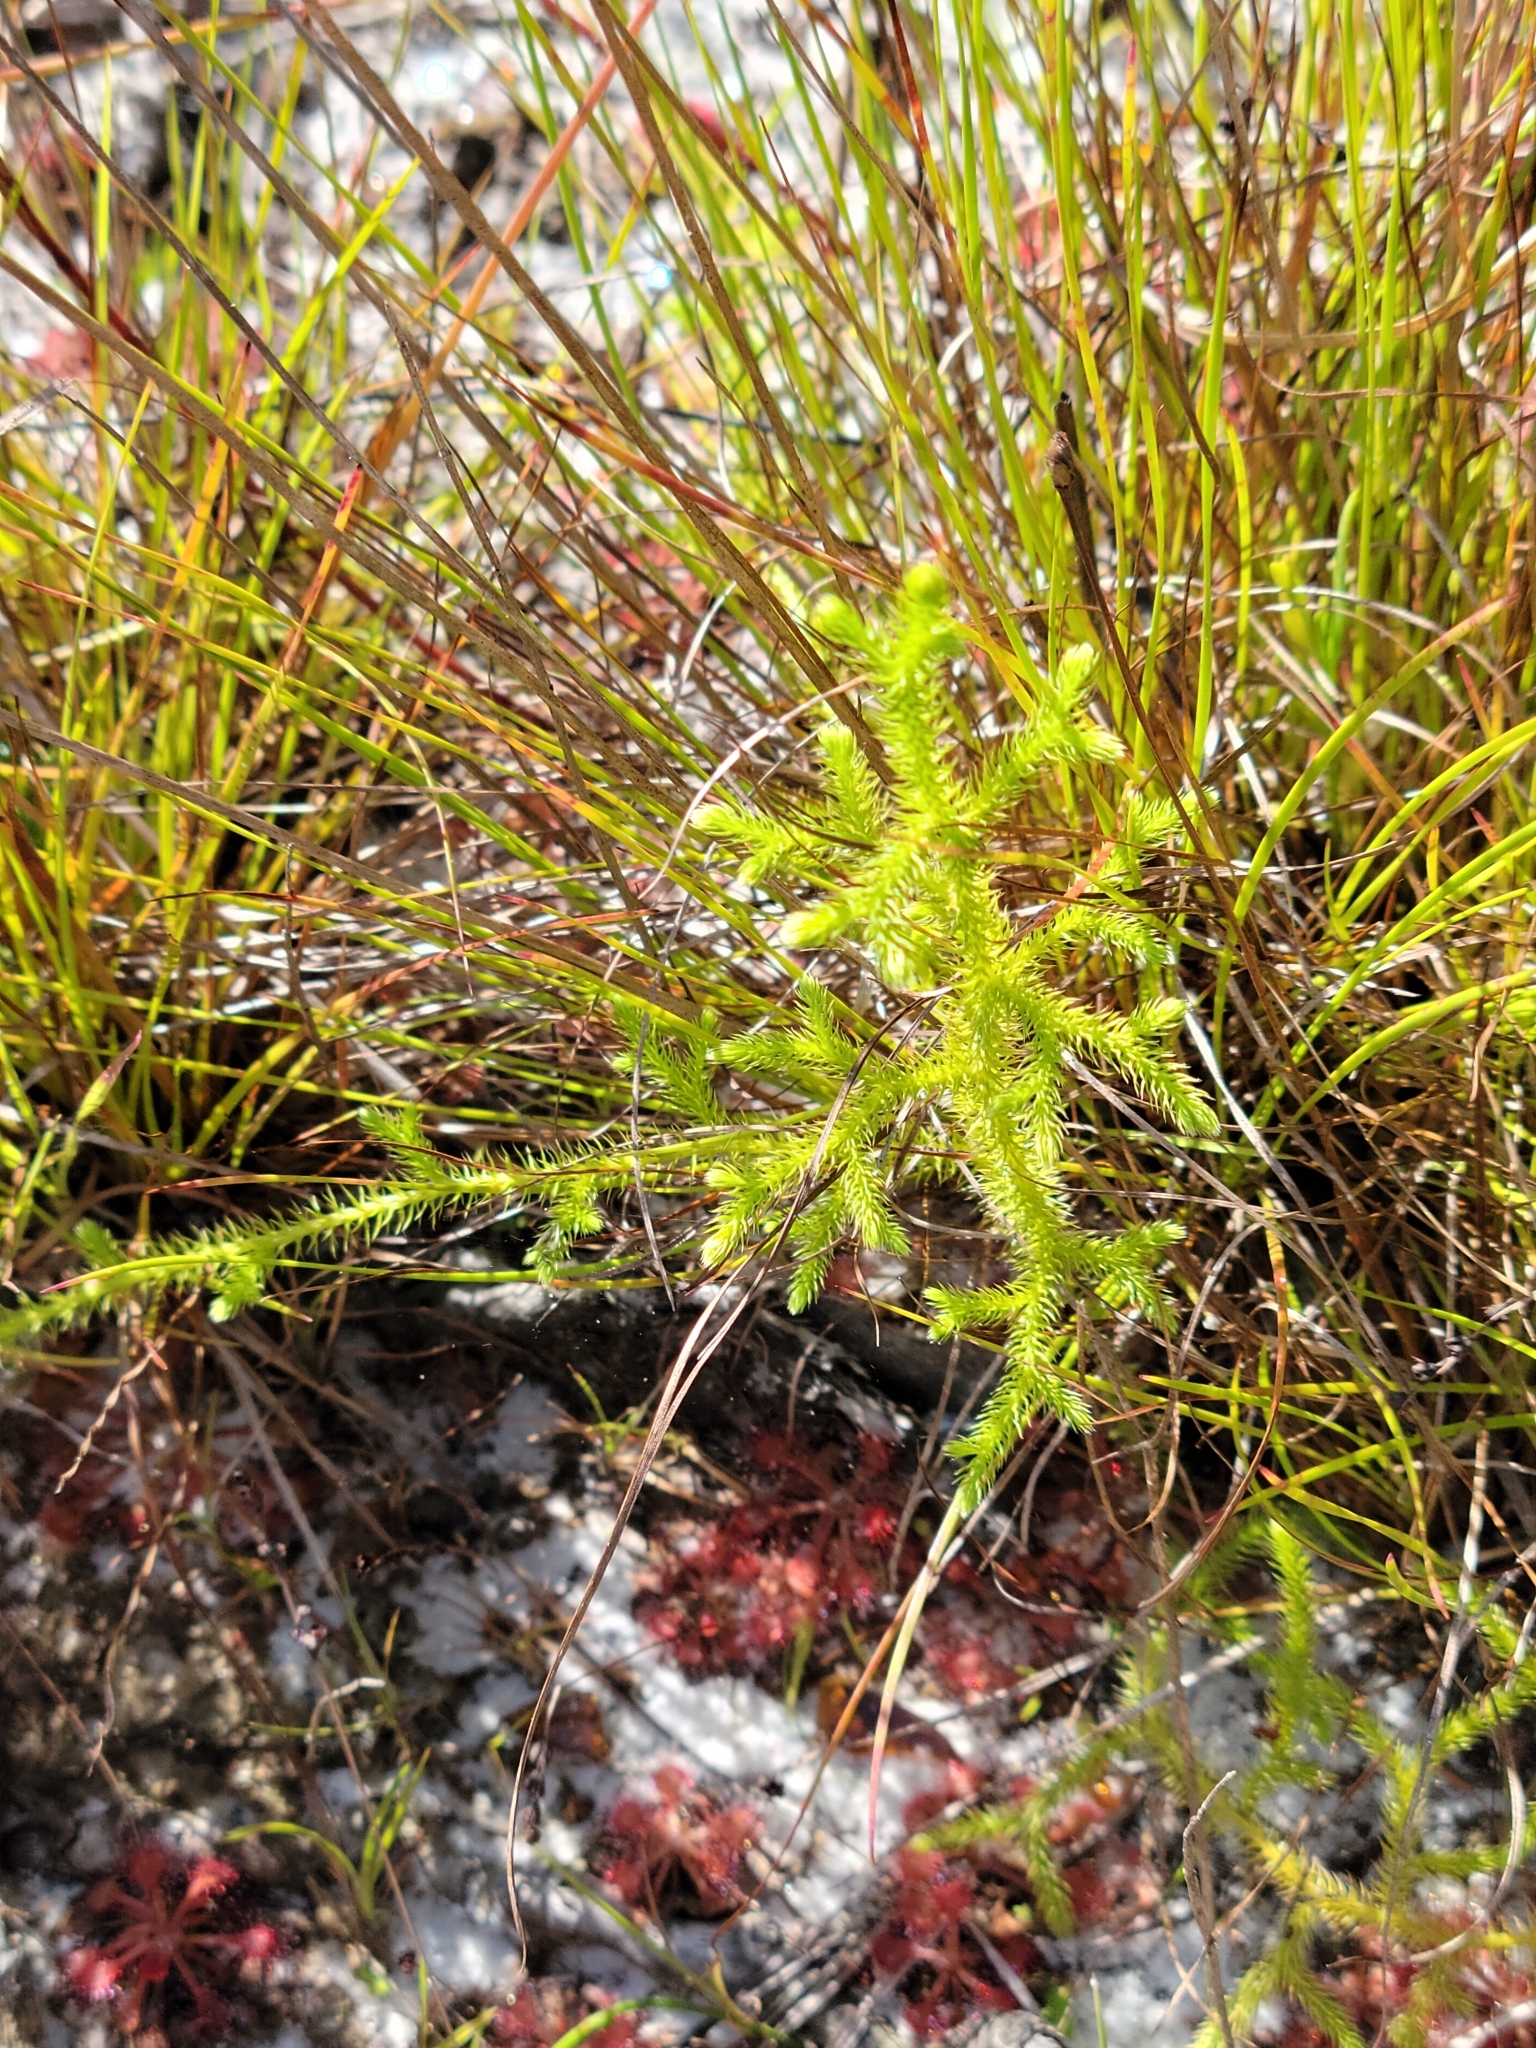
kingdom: Plantae
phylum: Tracheophyta
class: Lycopodiopsida
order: Lycopodiales
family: Lycopodiaceae
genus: Palhinhaea
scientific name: Palhinhaea cernua
